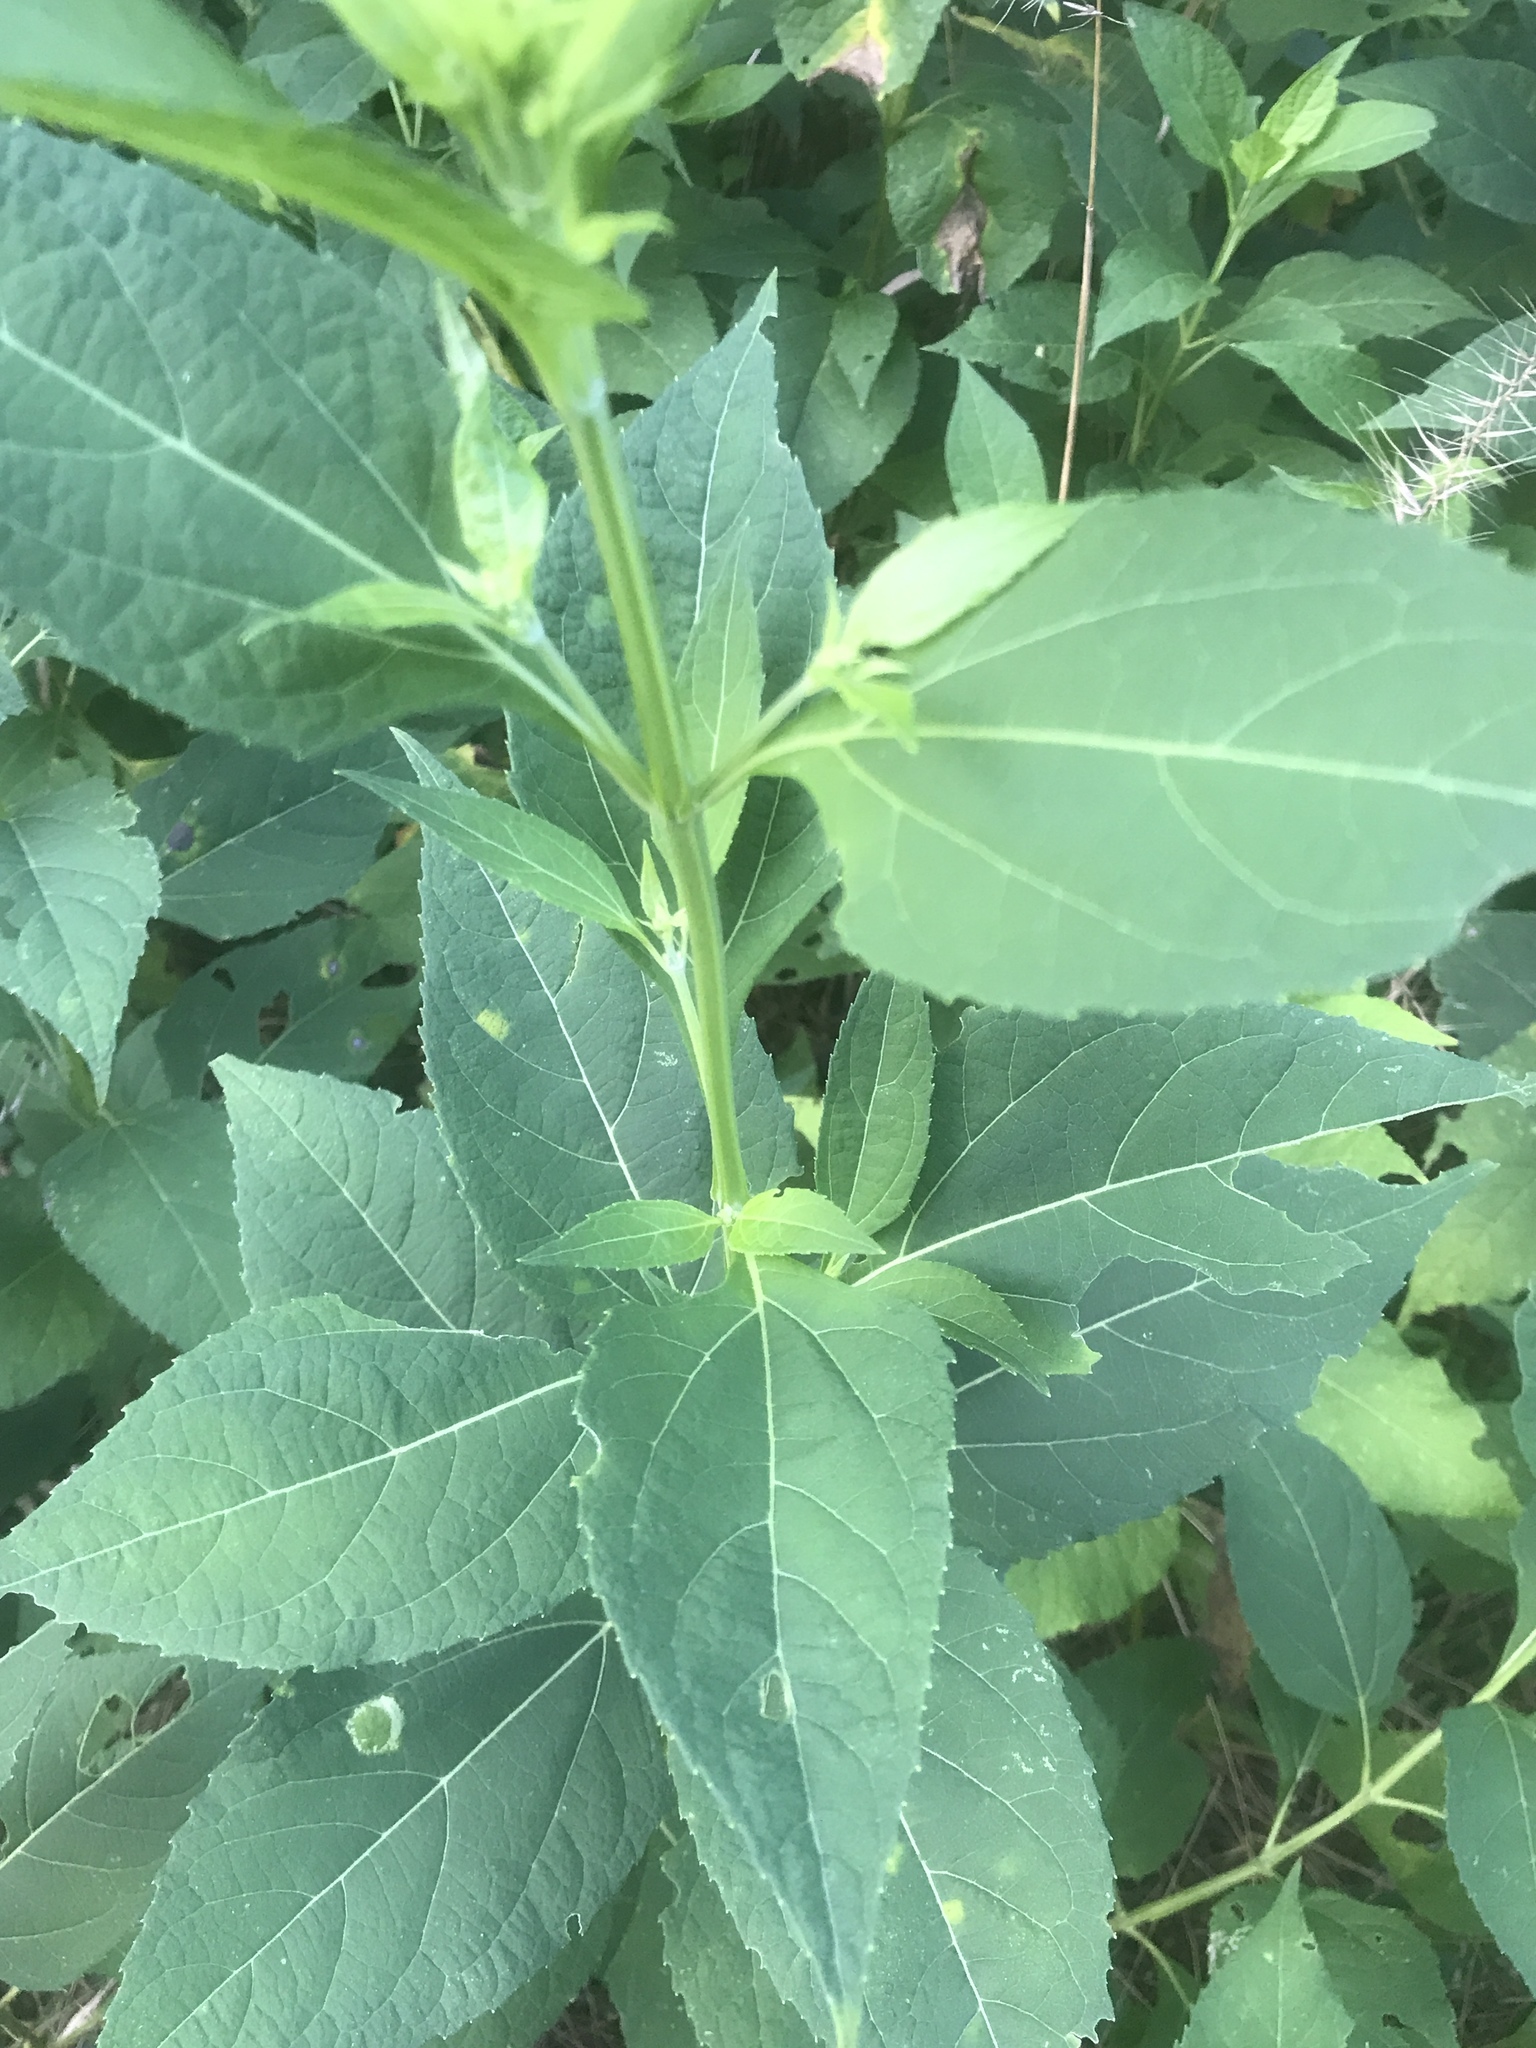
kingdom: Plantae
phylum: Tracheophyta
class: Magnoliopsida
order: Asterales
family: Asteraceae
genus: Verbesina
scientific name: Verbesina occidentalis
